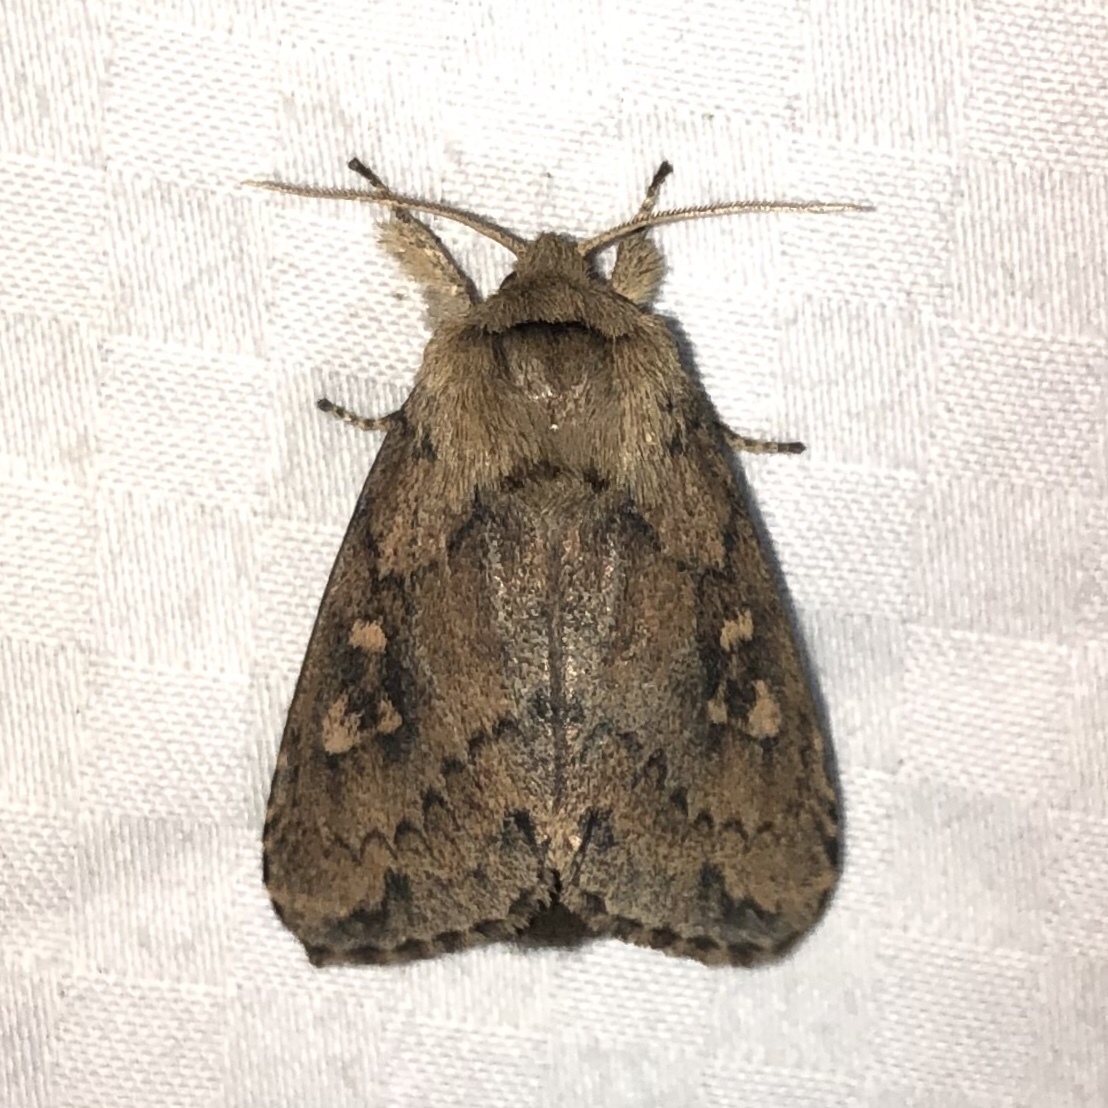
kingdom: Animalia
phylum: Arthropoda
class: Insecta
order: Lepidoptera
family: Noctuidae
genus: Bellura
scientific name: Bellura vulnifica
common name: Black-tailed diver moth
